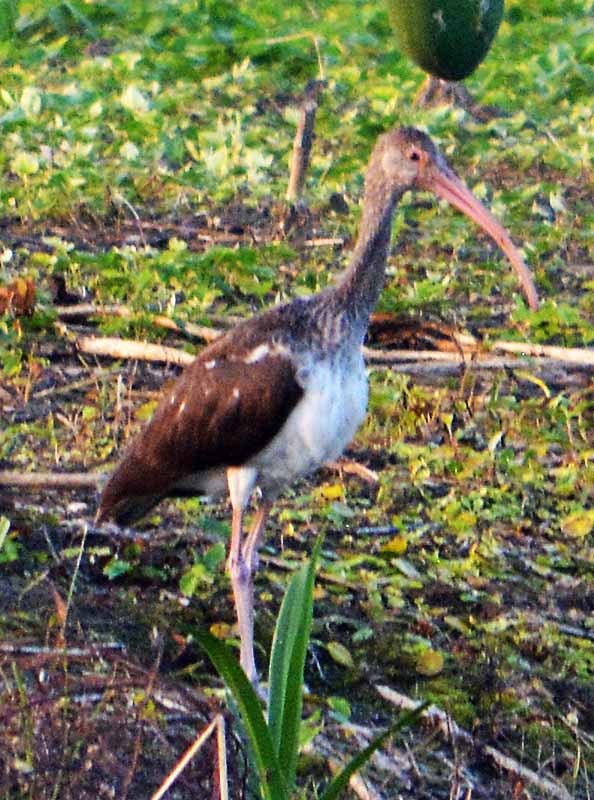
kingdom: Animalia
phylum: Chordata
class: Aves
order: Pelecaniformes
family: Threskiornithidae
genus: Eudocimus
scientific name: Eudocimus albus
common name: White ibis
